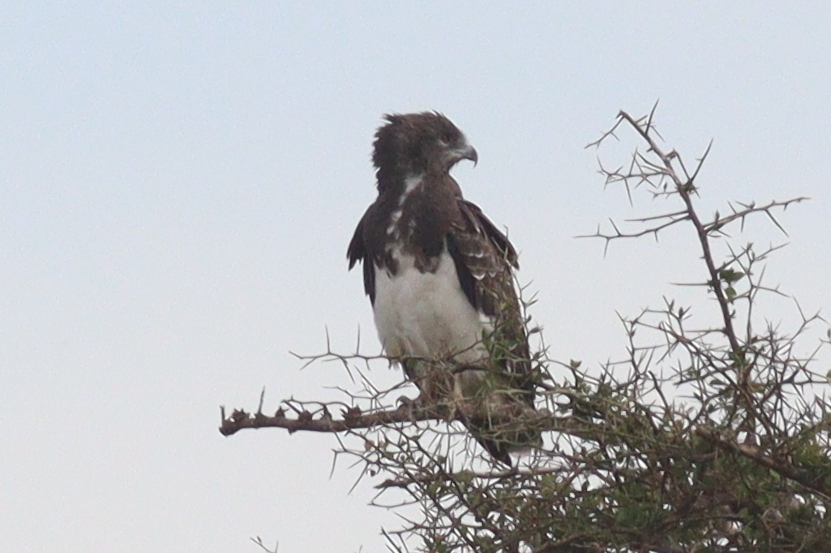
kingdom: Animalia
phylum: Chordata
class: Aves
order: Accipitriformes
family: Accipitridae
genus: Circaetus
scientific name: Circaetus pectoralis
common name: Black-chested snake eagle
